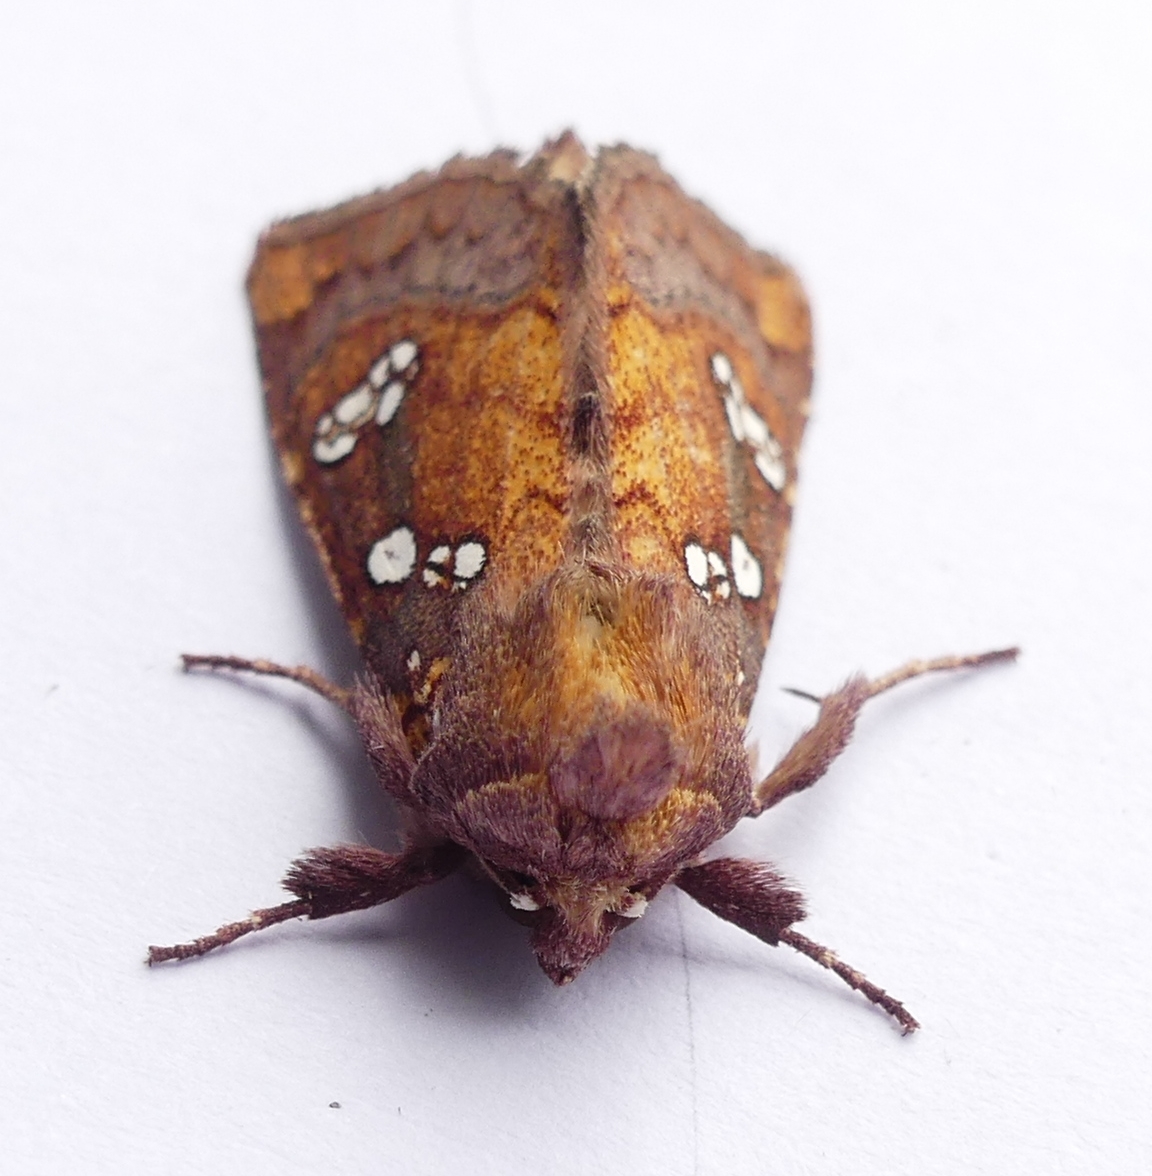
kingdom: Animalia
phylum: Arthropoda
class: Insecta
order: Lepidoptera
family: Noctuidae
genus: Papaipema
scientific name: Papaipema baptisiae
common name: Wild indigo borer moth
